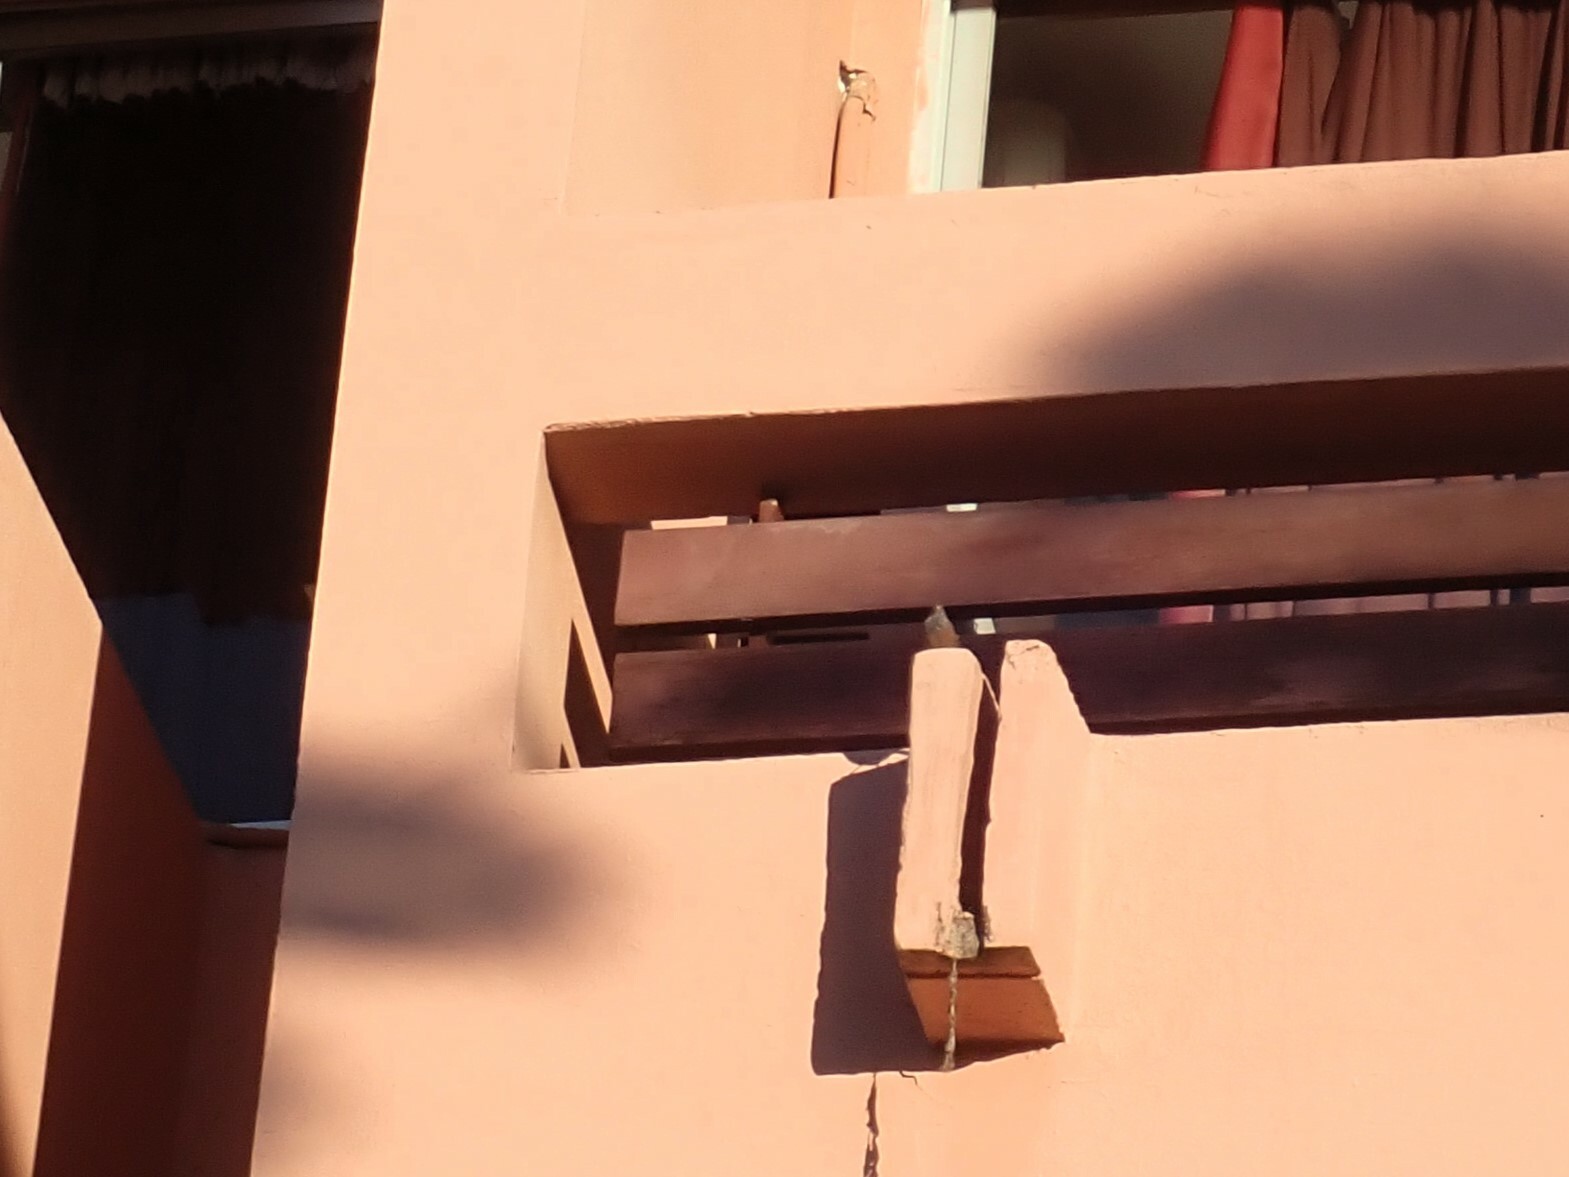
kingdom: Animalia
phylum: Chordata
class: Aves
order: Passeriformes
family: Emberizidae
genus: Emberiza
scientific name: Emberiza sahari
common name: House bunting
